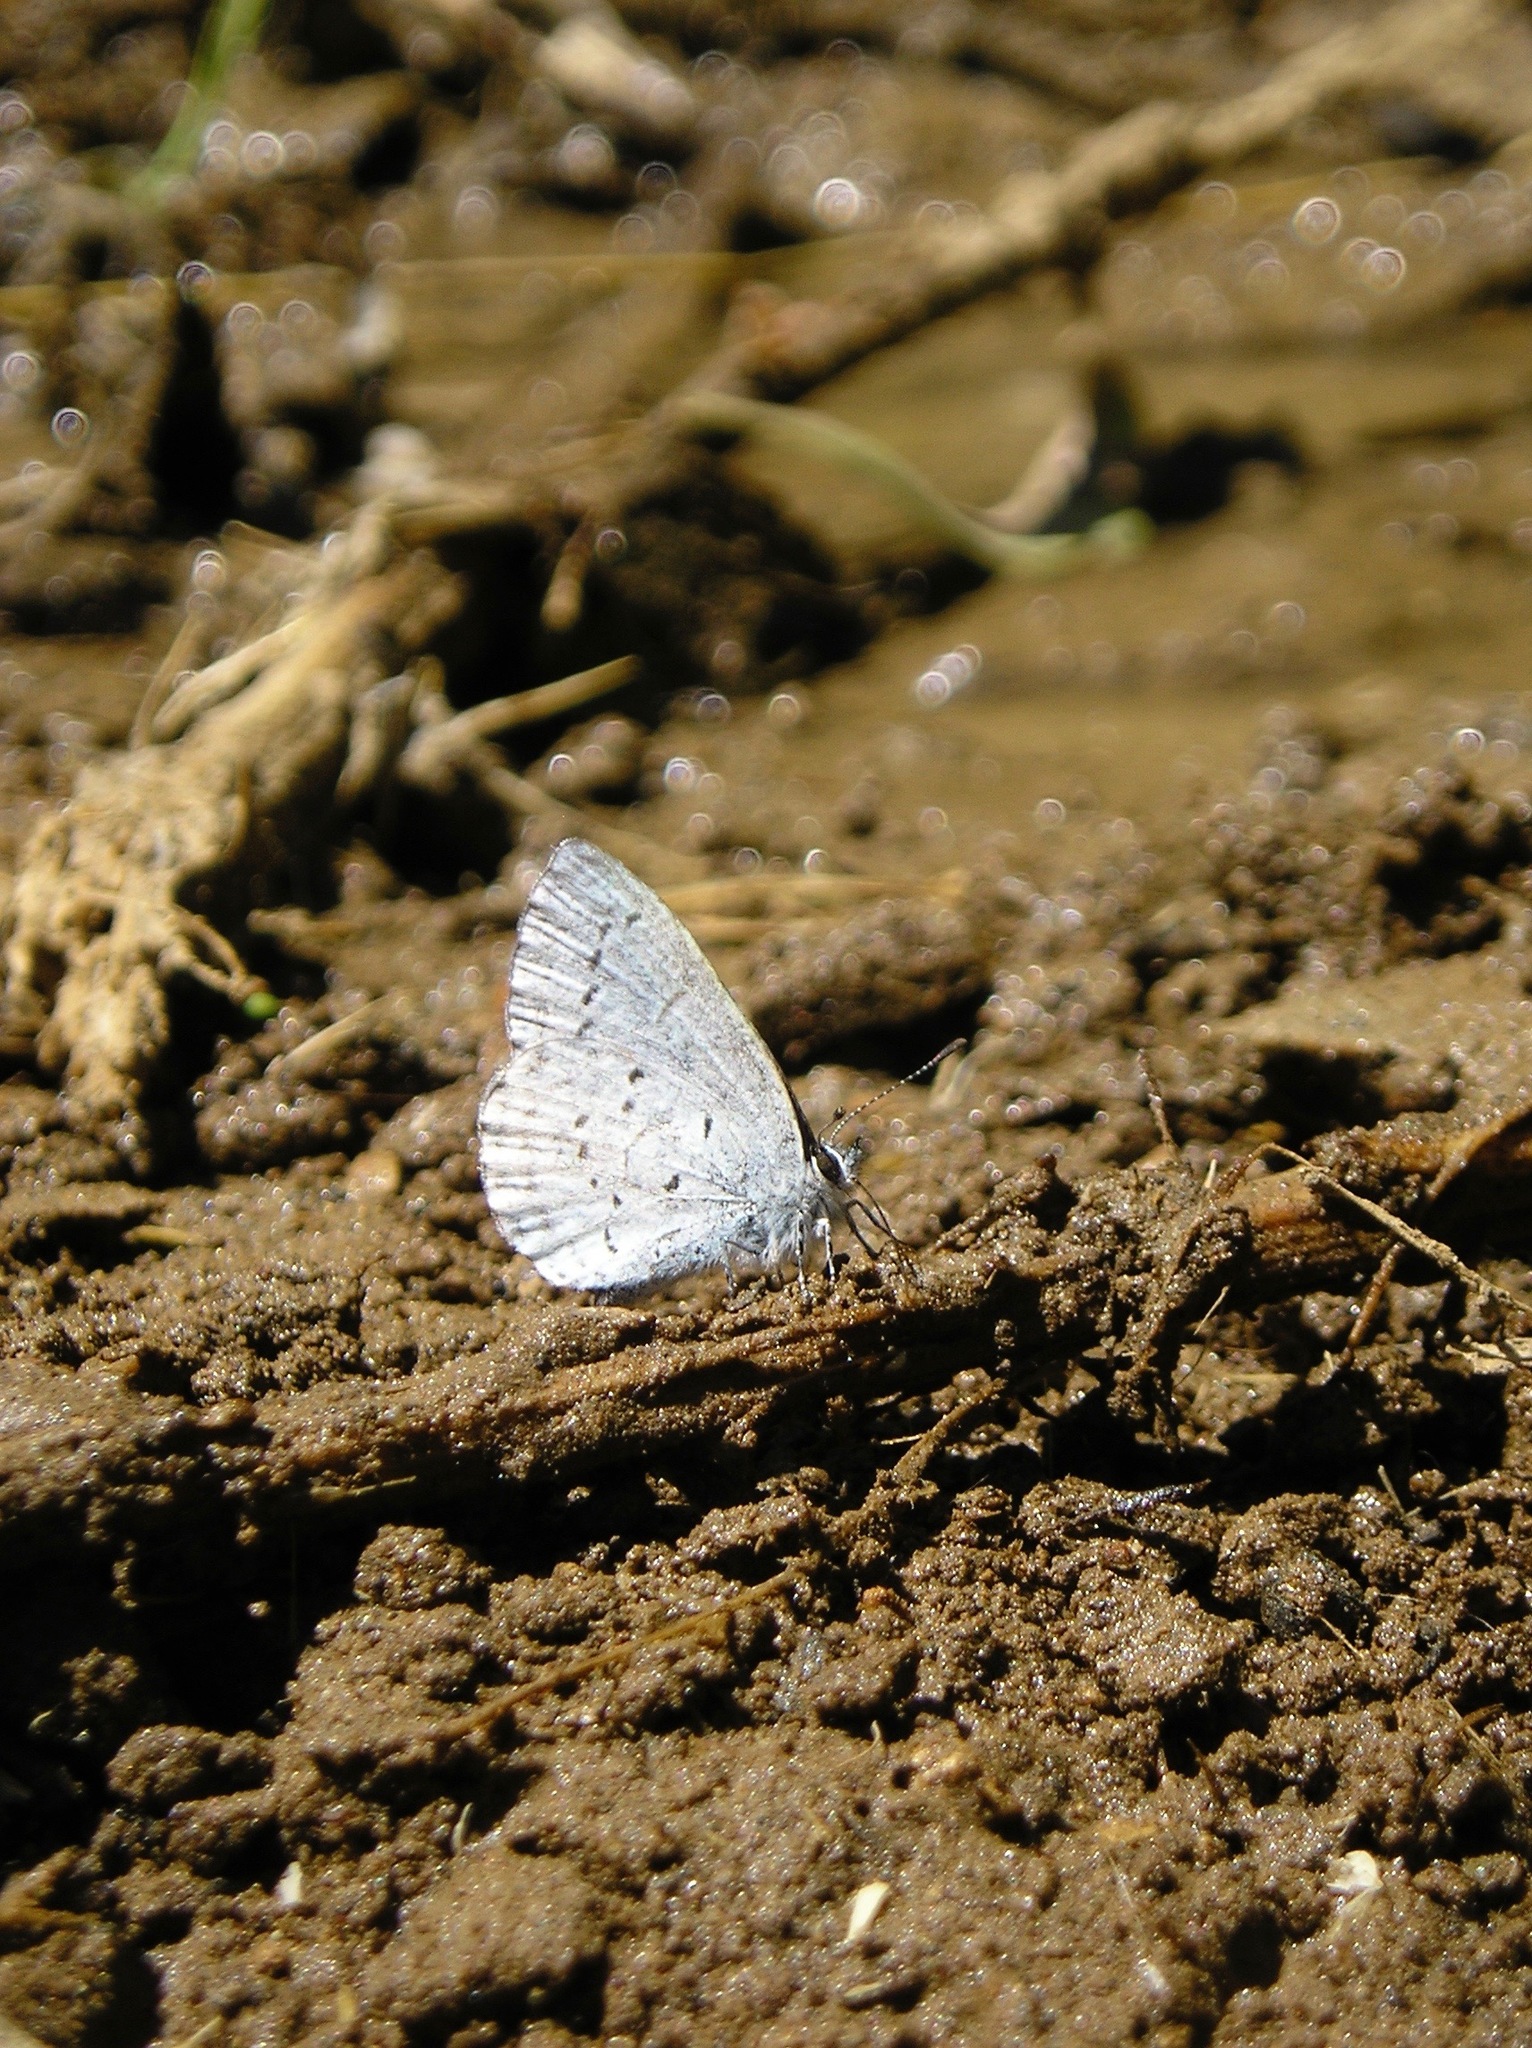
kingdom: Animalia
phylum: Arthropoda
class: Insecta
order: Lepidoptera
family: Lycaenidae
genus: Celastrina
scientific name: Celastrina ladon
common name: Spring azure
